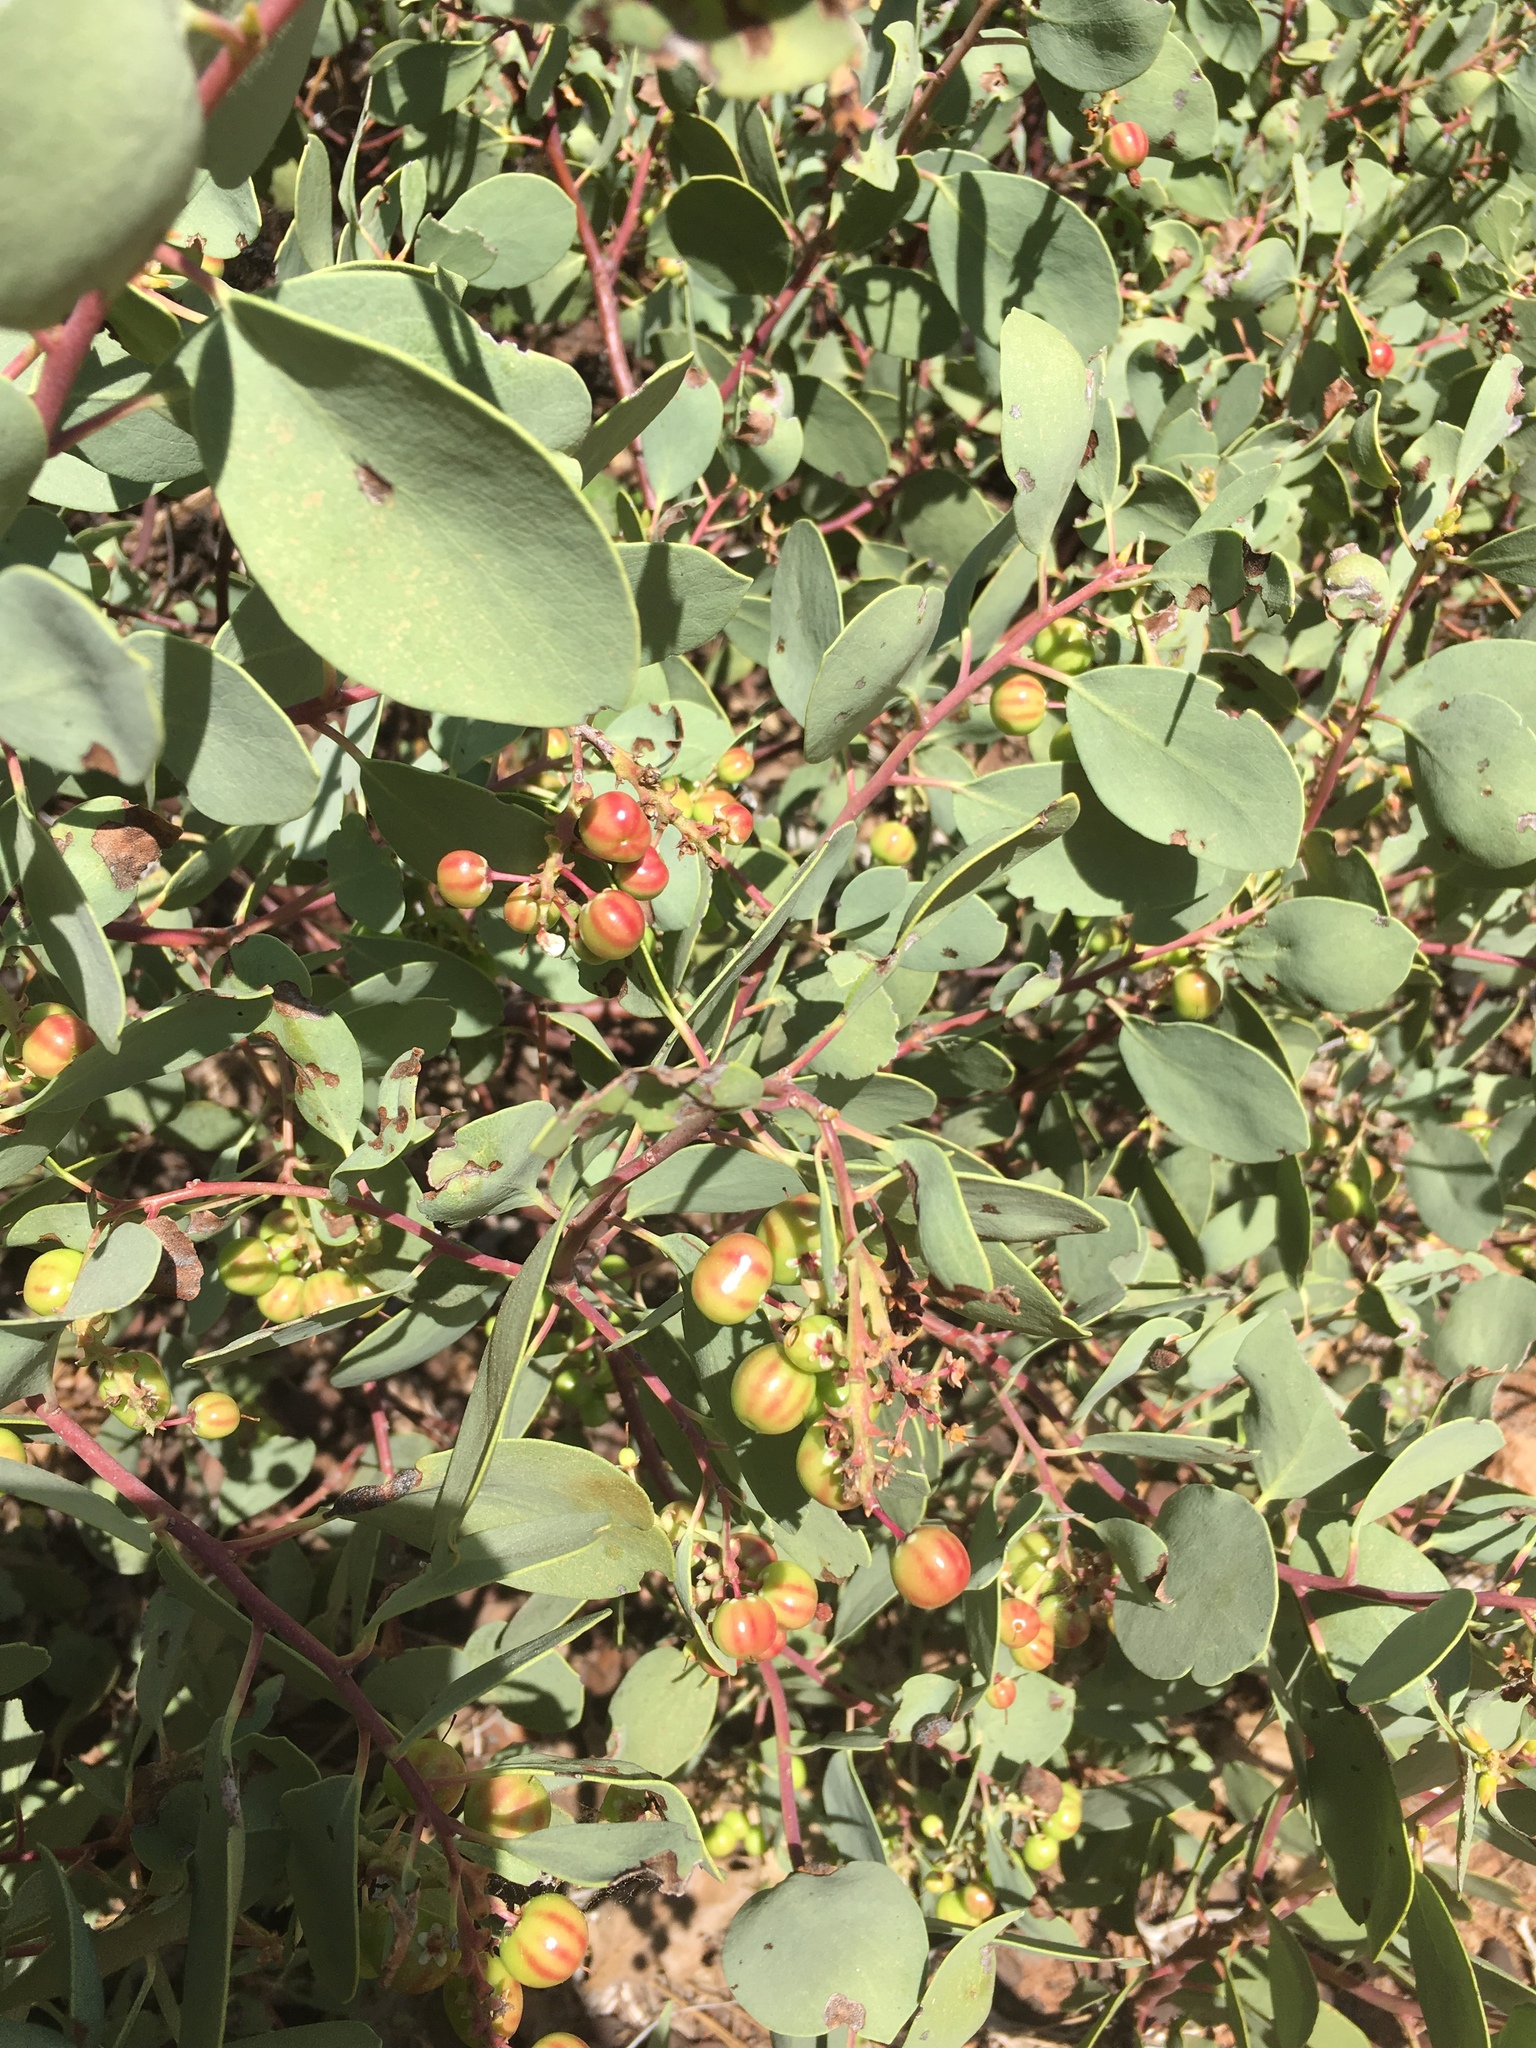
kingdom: Plantae
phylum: Tracheophyta
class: Magnoliopsida
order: Ericales
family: Ericaceae
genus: Arctostaphylos
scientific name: Arctostaphylos mewukka
